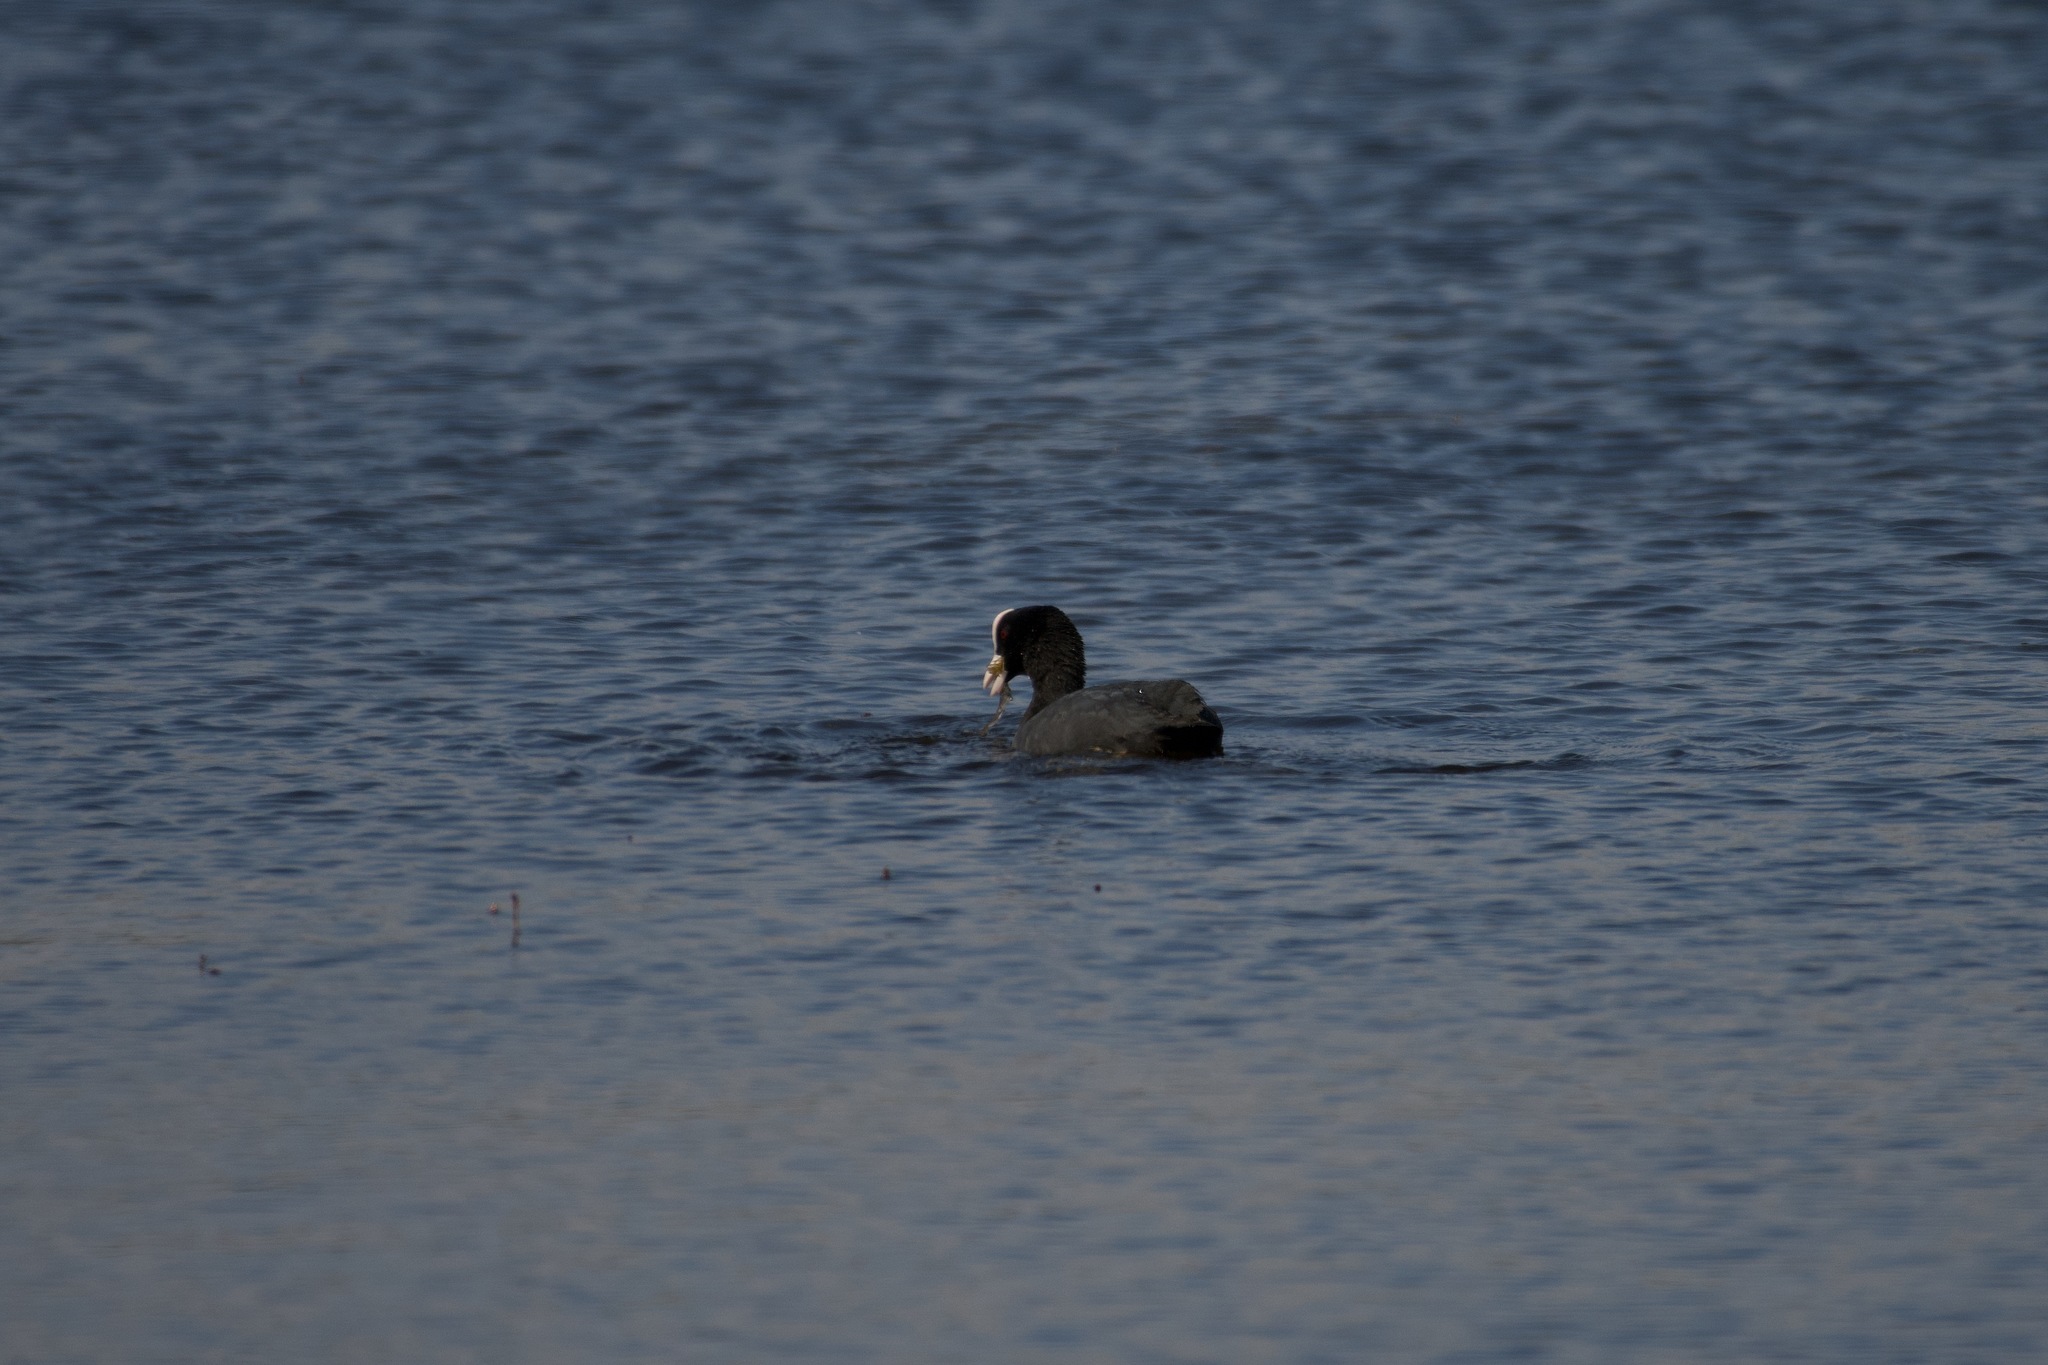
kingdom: Animalia
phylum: Chordata
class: Aves
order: Gruiformes
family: Rallidae
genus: Fulica
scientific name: Fulica atra
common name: Eurasian coot
